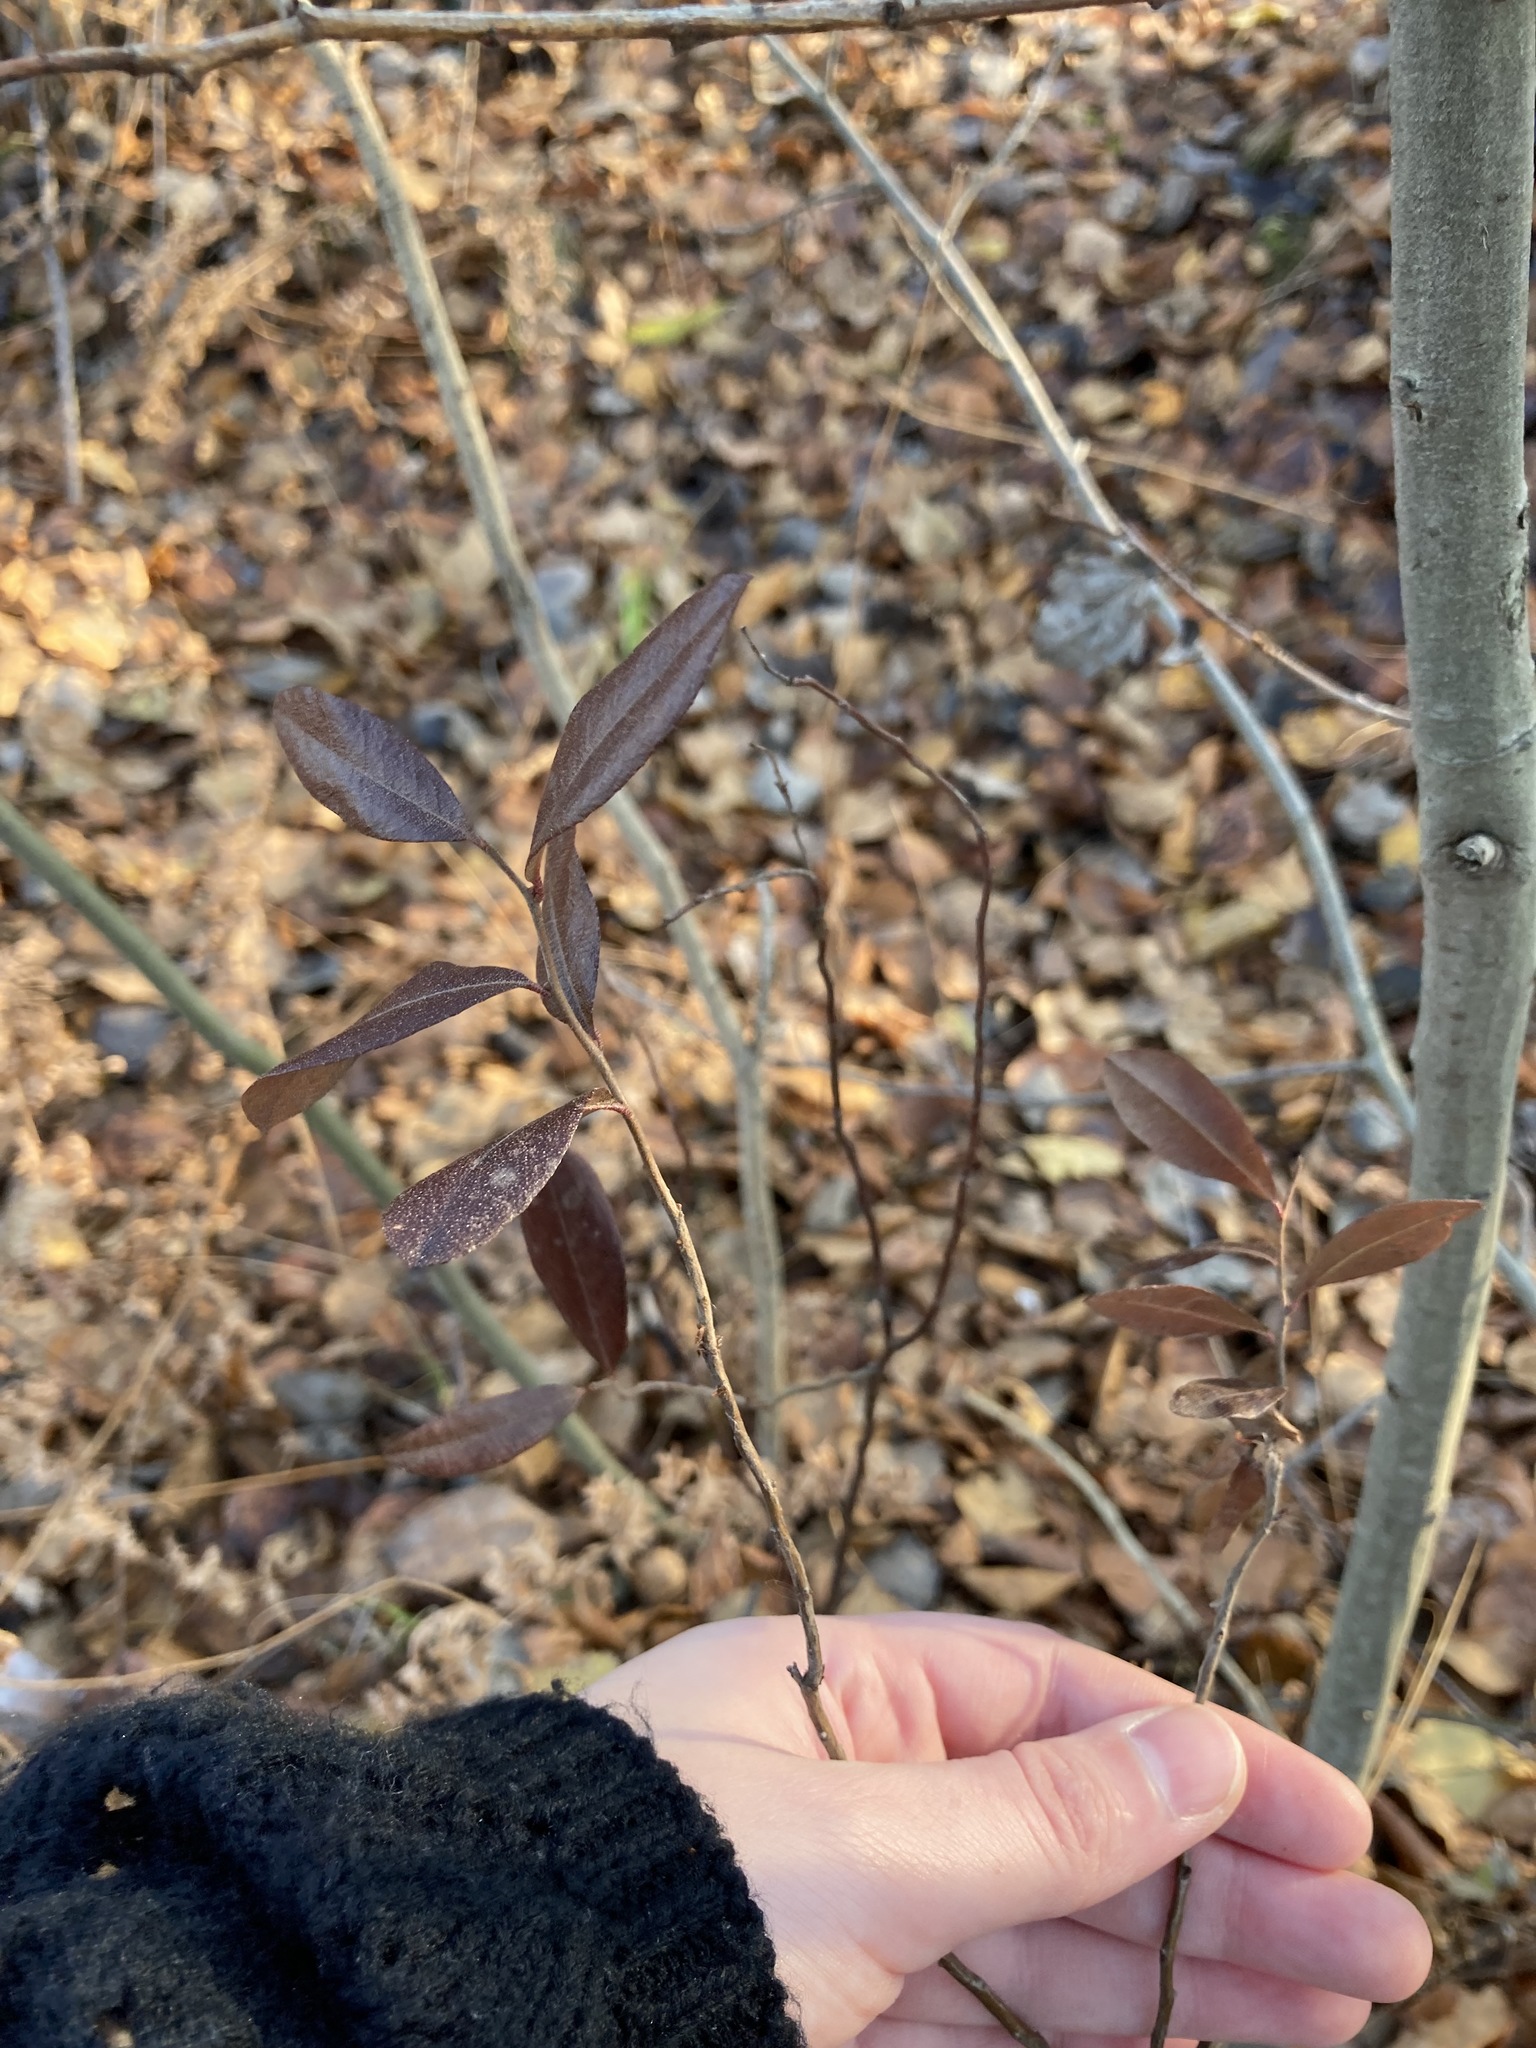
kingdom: Plantae
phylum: Tracheophyta
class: Magnoliopsida
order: Ericales
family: Ericaceae
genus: Chamaedaphne
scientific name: Chamaedaphne calyculata
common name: Leatherleaf
